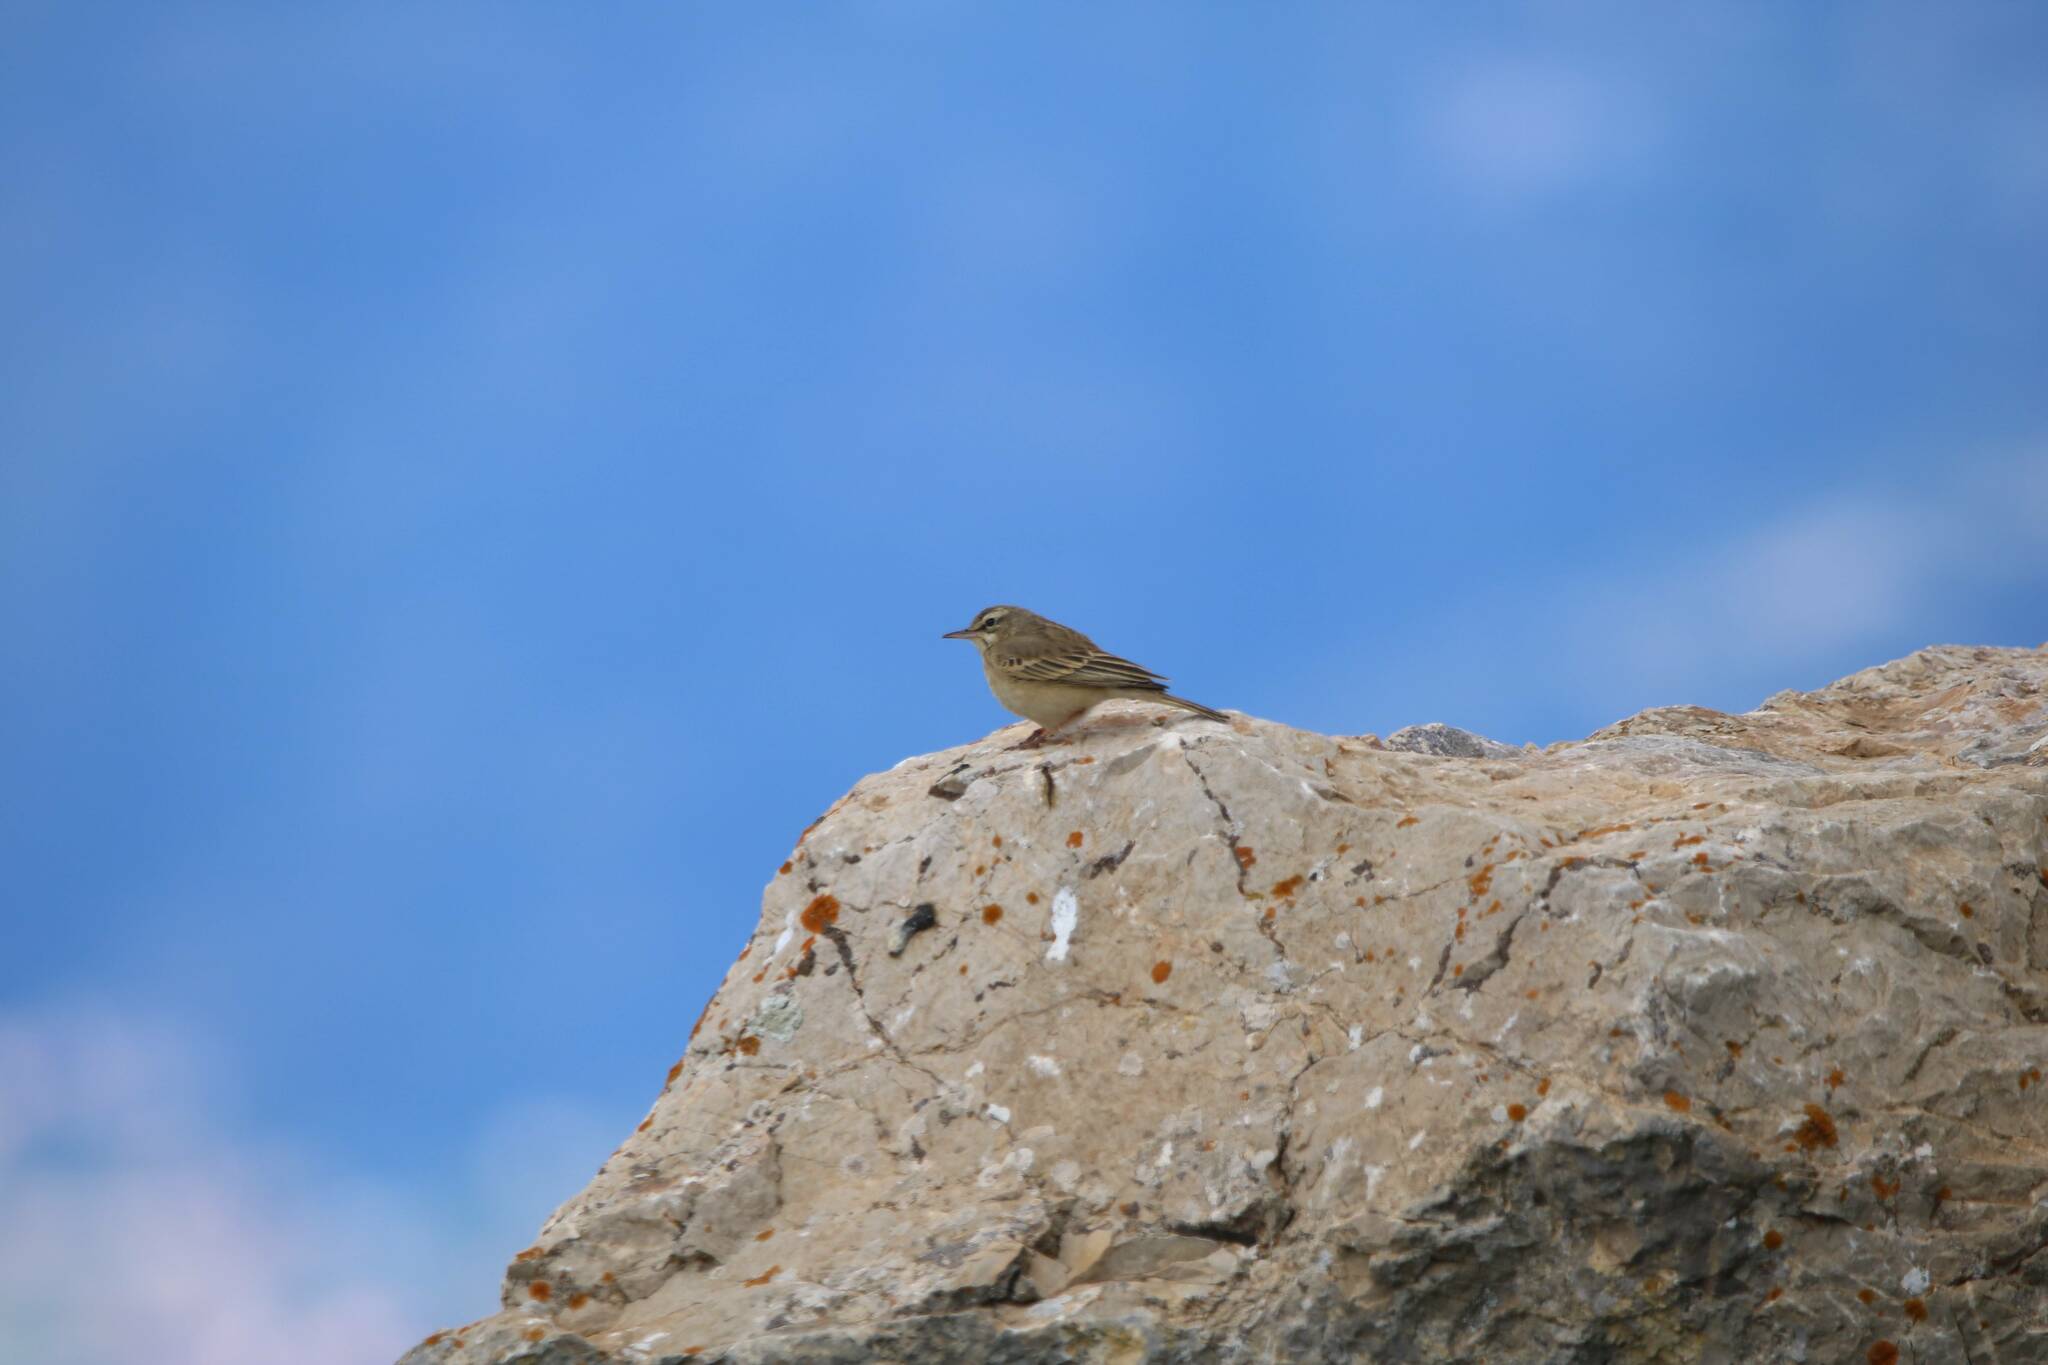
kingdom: Animalia
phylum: Chordata
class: Aves
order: Passeriformes
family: Motacillidae
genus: Anthus
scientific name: Anthus campestris
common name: Tawny pipit
